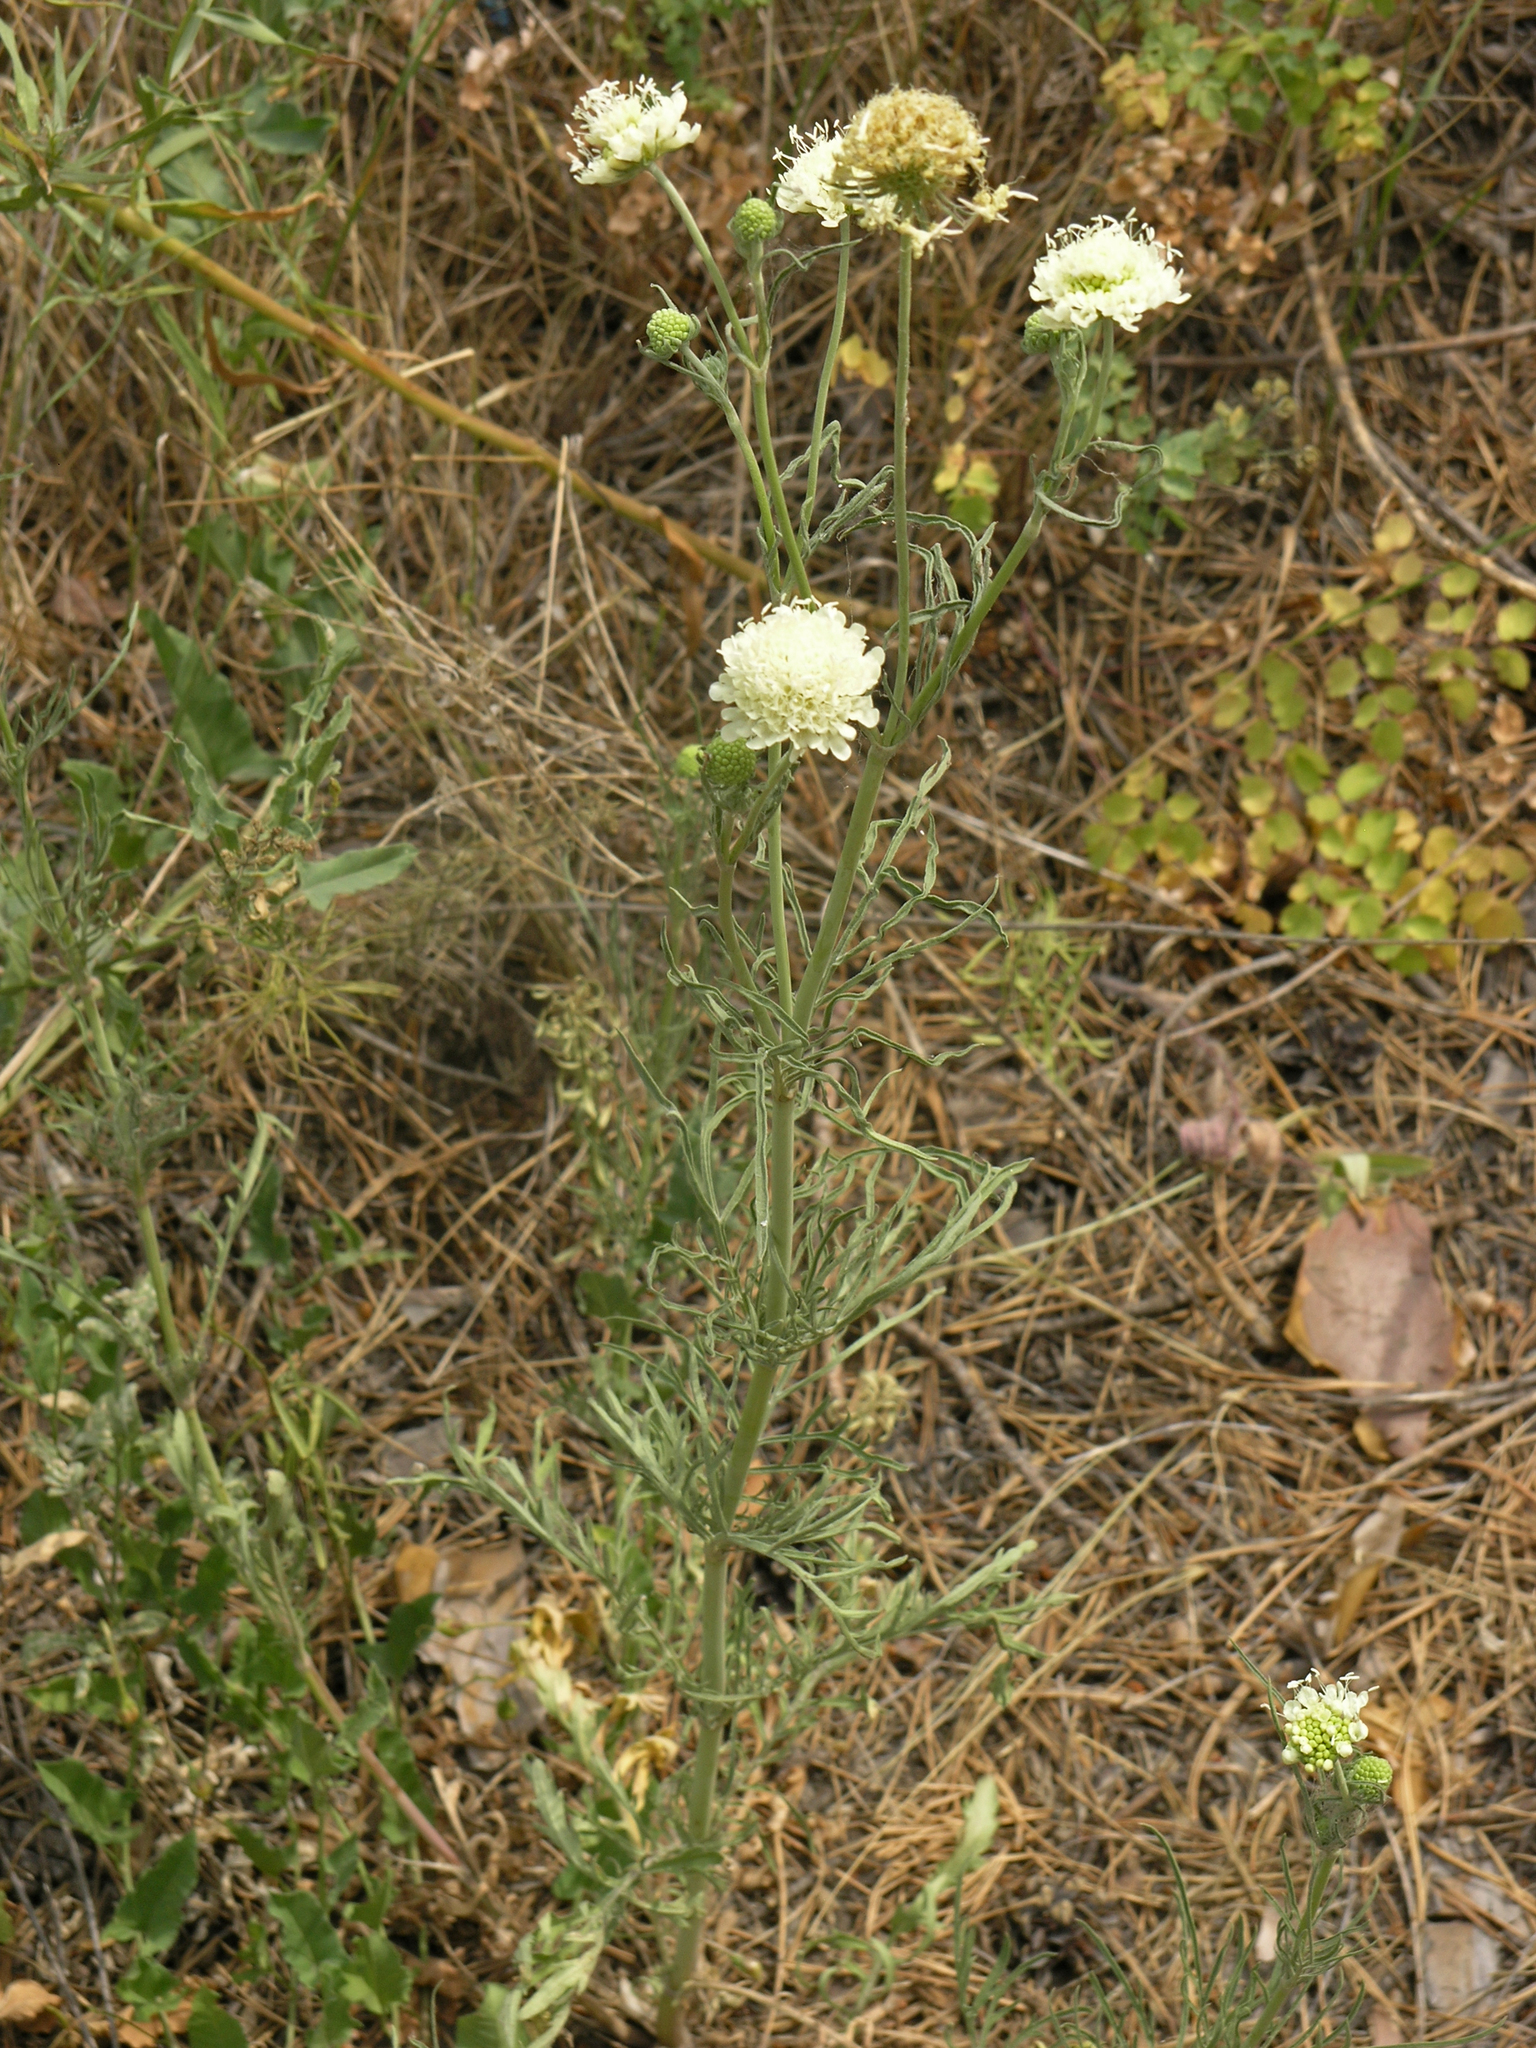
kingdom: Plantae
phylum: Tracheophyta
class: Magnoliopsida
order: Dipsacales
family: Caprifoliaceae
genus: Scabiosa
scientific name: Scabiosa ochroleuca
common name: Cream pincushions
